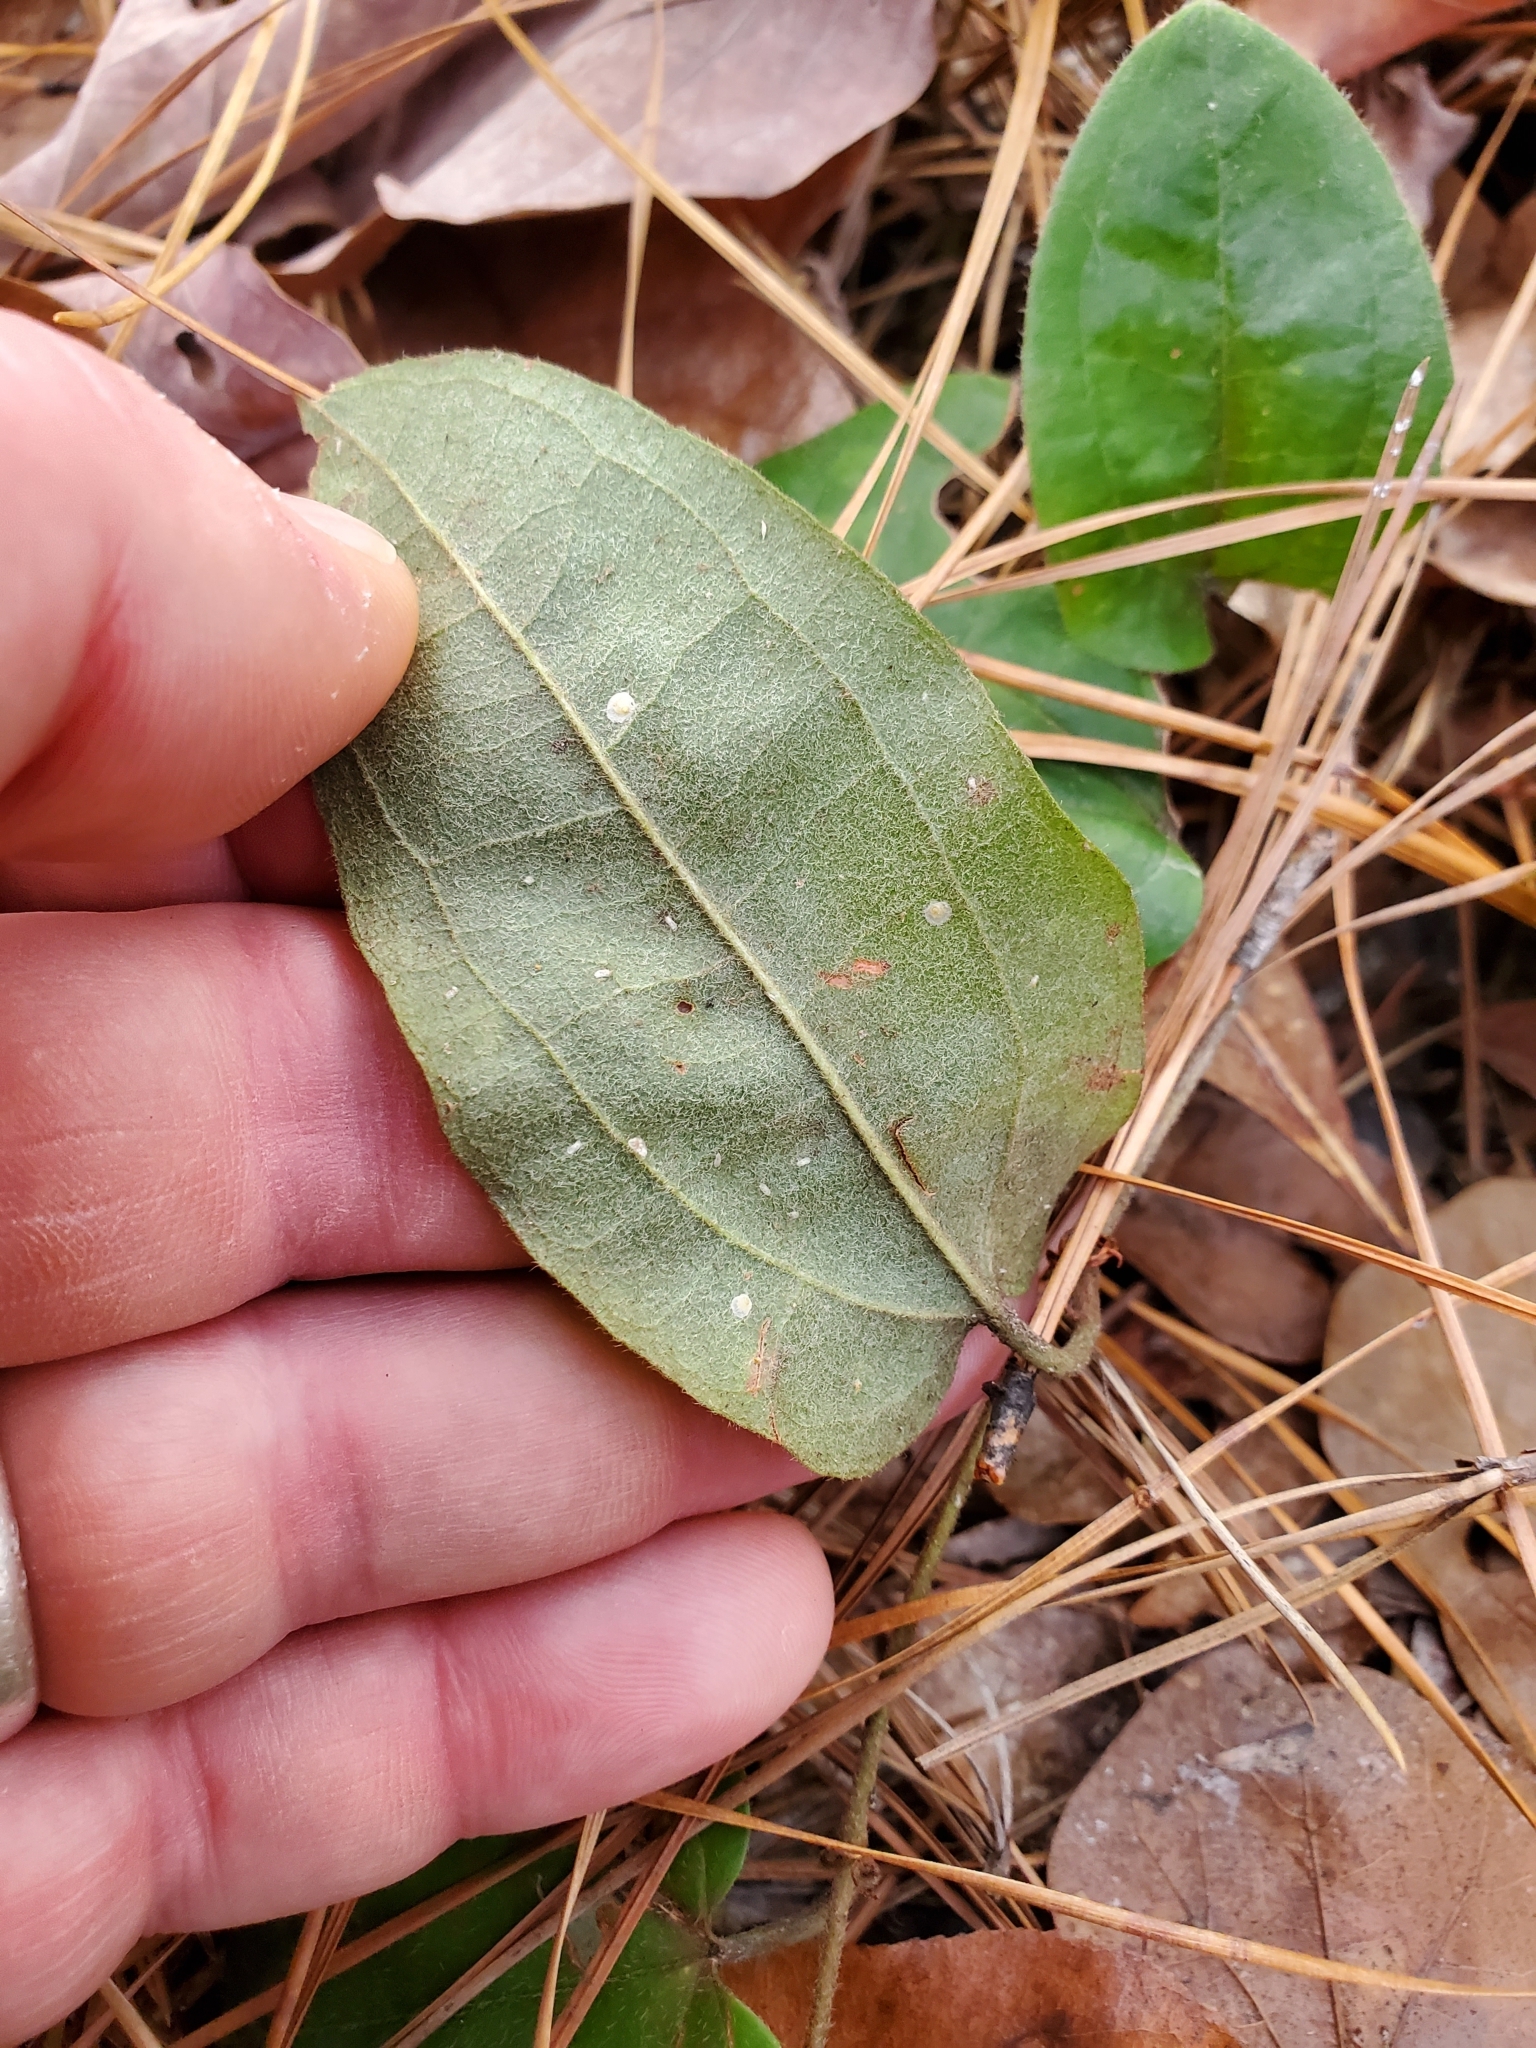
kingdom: Plantae
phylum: Tracheophyta
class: Liliopsida
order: Liliales
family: Smilacaceae
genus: Smilax
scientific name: Smilax pumila
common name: Sarsaparilla-vine
